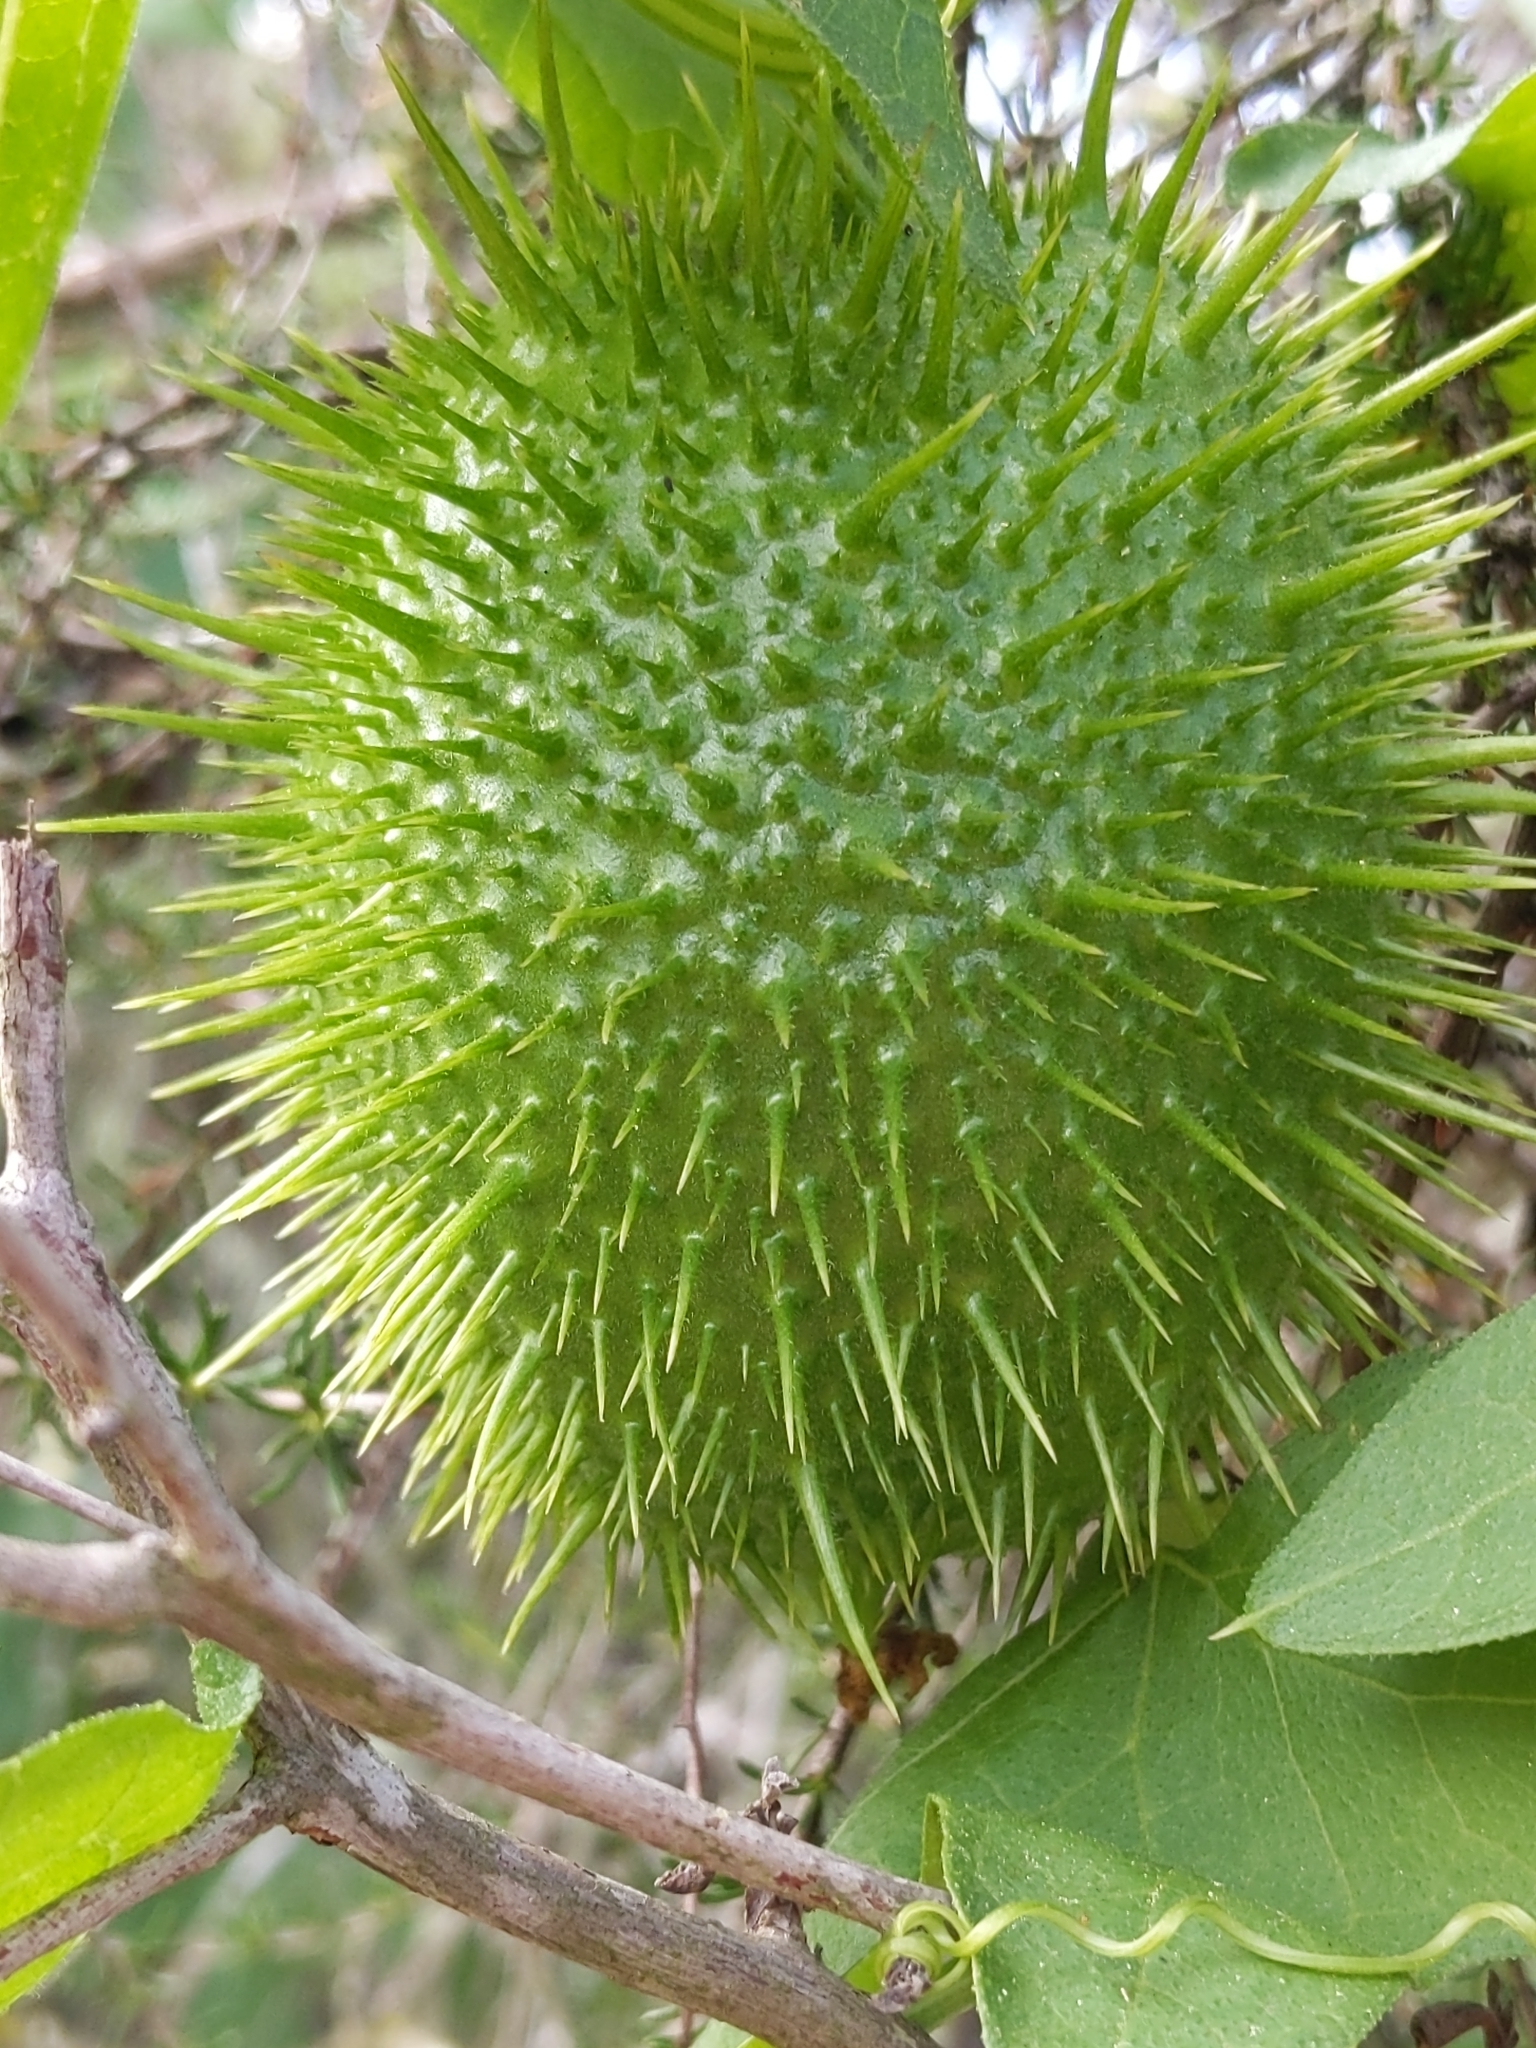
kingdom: Plantae
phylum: Tracheophyta
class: Magnoliopsida
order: Cucurbitales
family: Cucurbitaceae
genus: Marah
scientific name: Marah macrocarpa
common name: Cucamonga manroot
